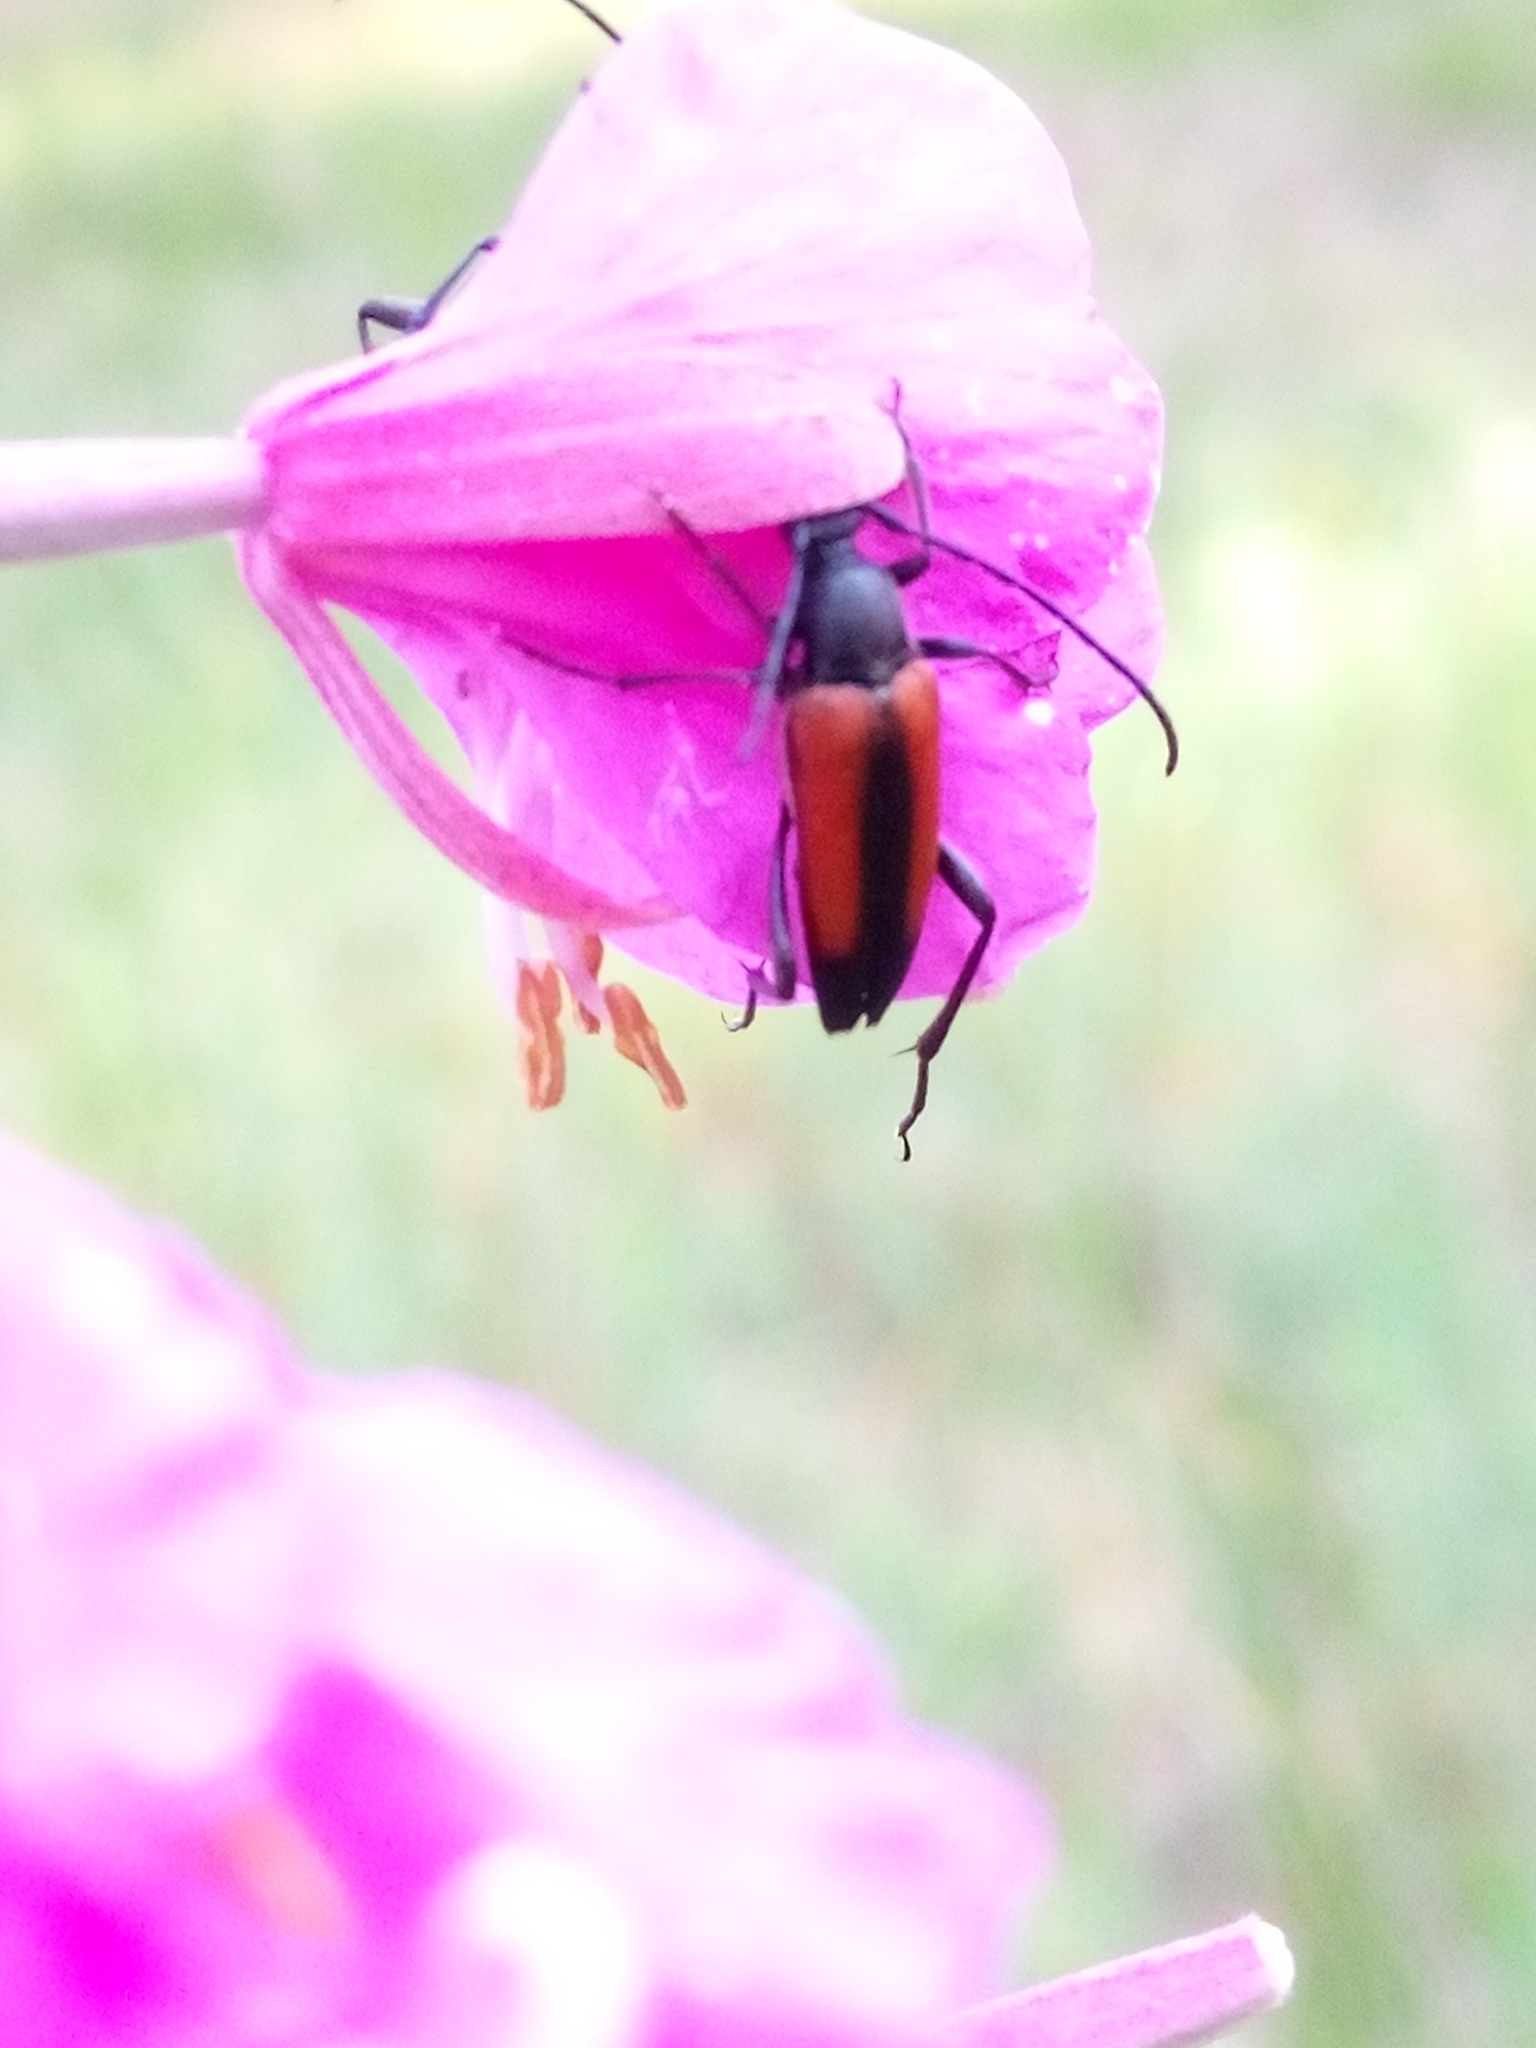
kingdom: Animalia
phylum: Arthropoda
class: Insecta
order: Coleoptera
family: Cerambycidae
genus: Stenurella
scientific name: Stenurella melanura
